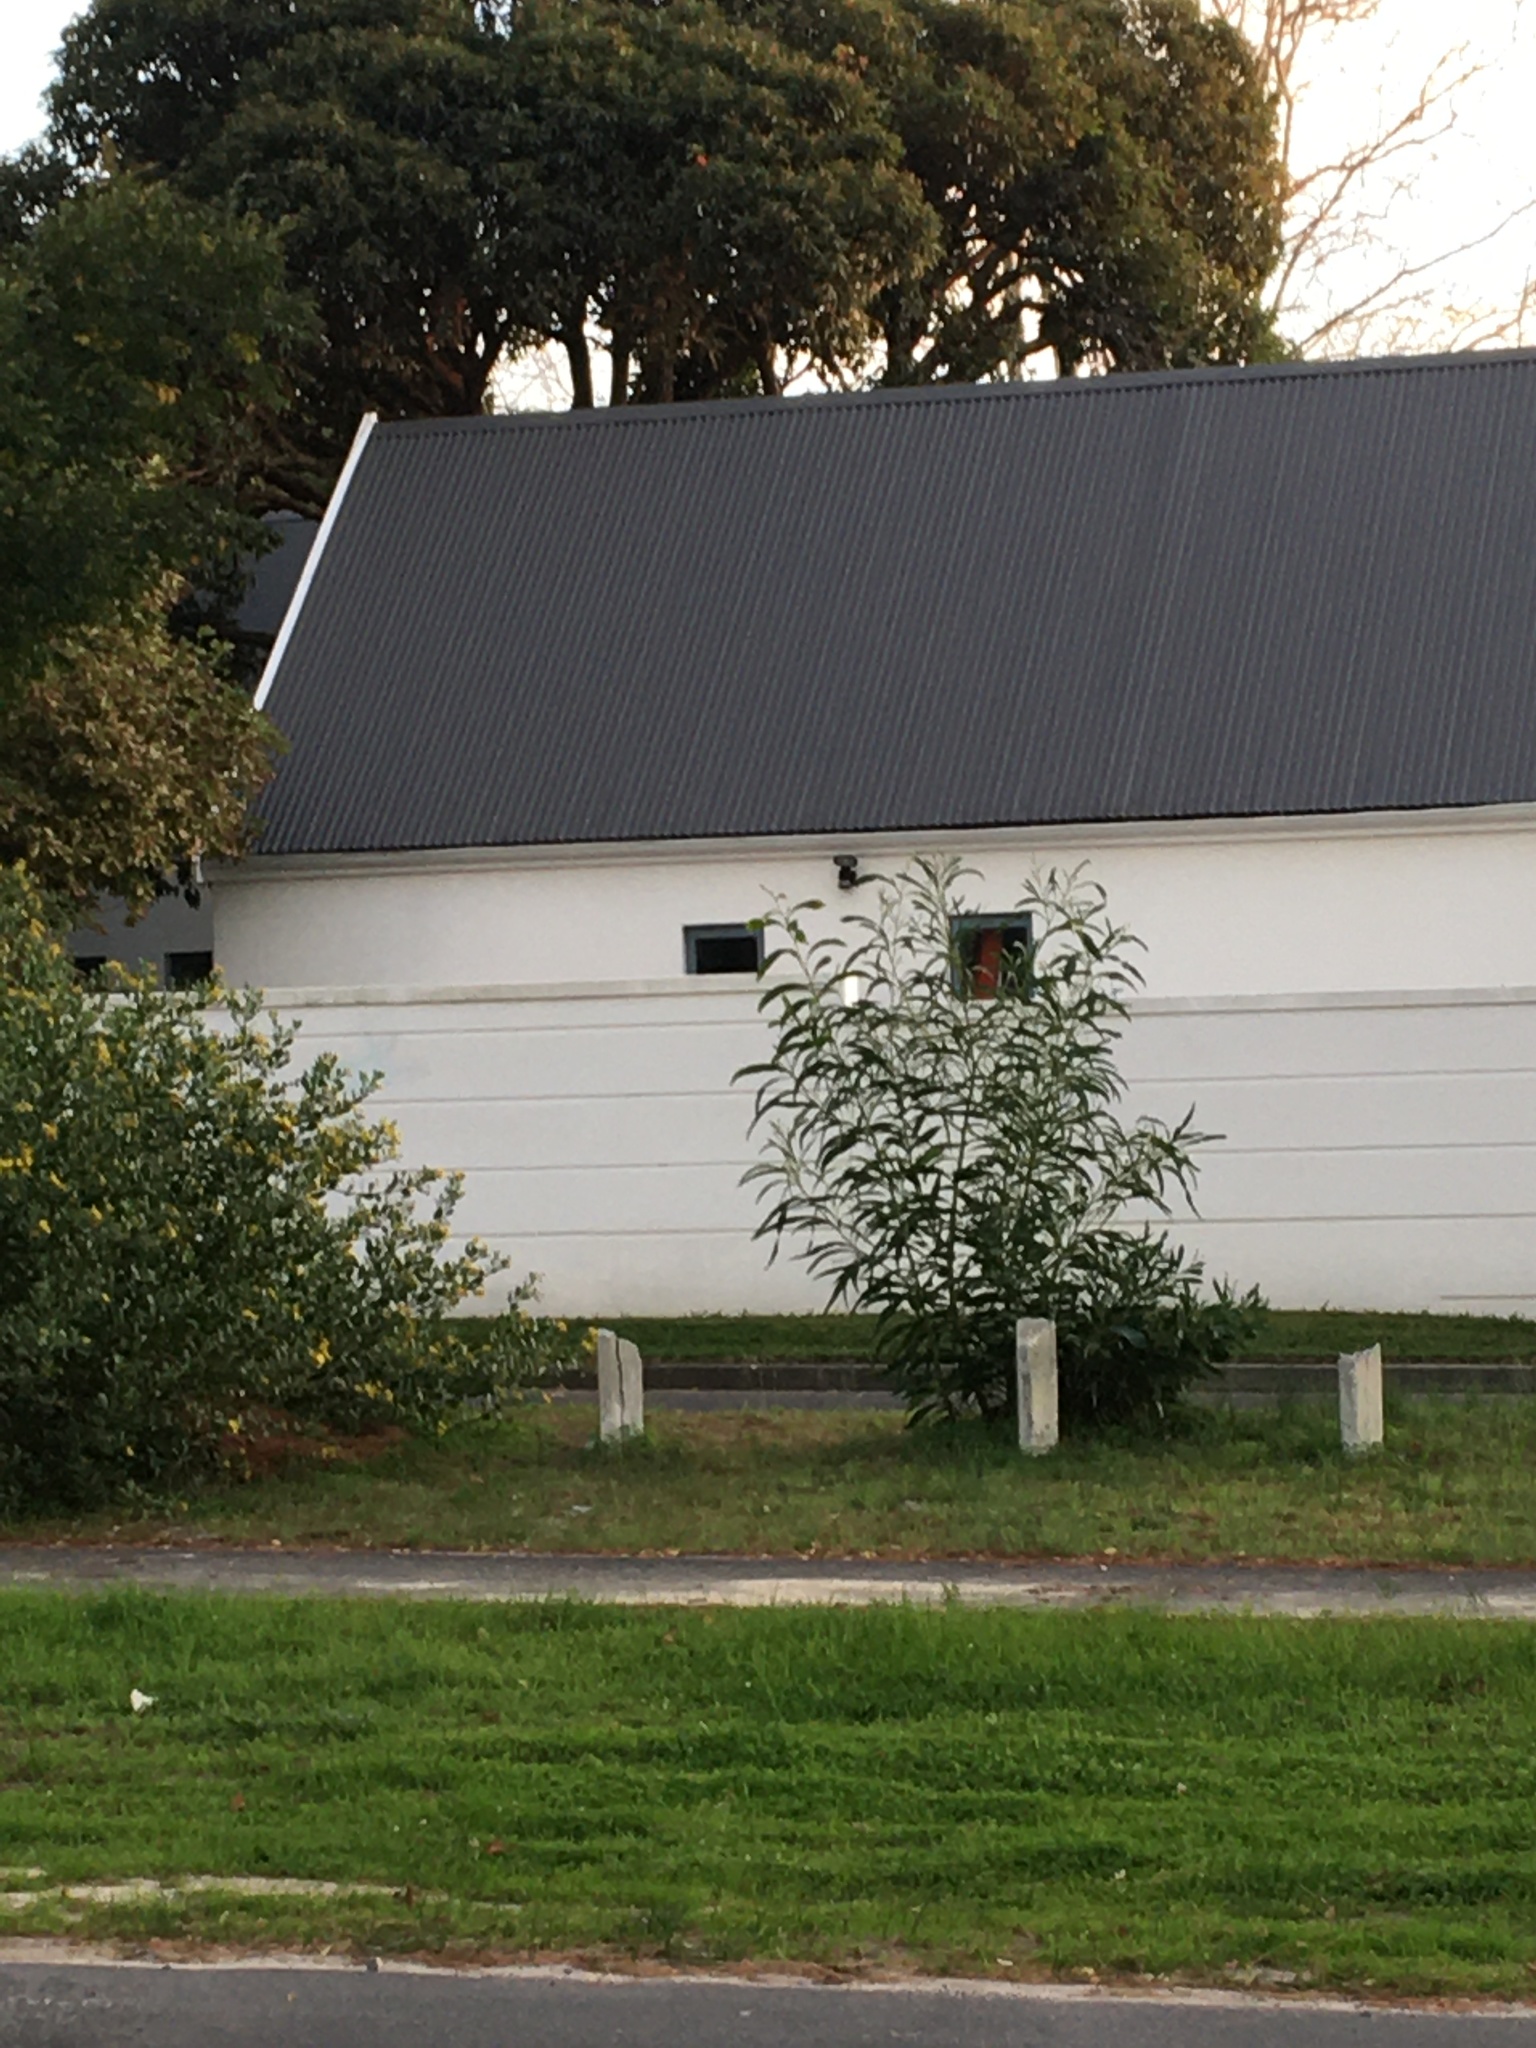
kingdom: Plantae
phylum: Tracheophyta
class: Magnoliopsida
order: Fabales
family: Fabaceae
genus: Acacia
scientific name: Acacia saligna
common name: Orange wattle
